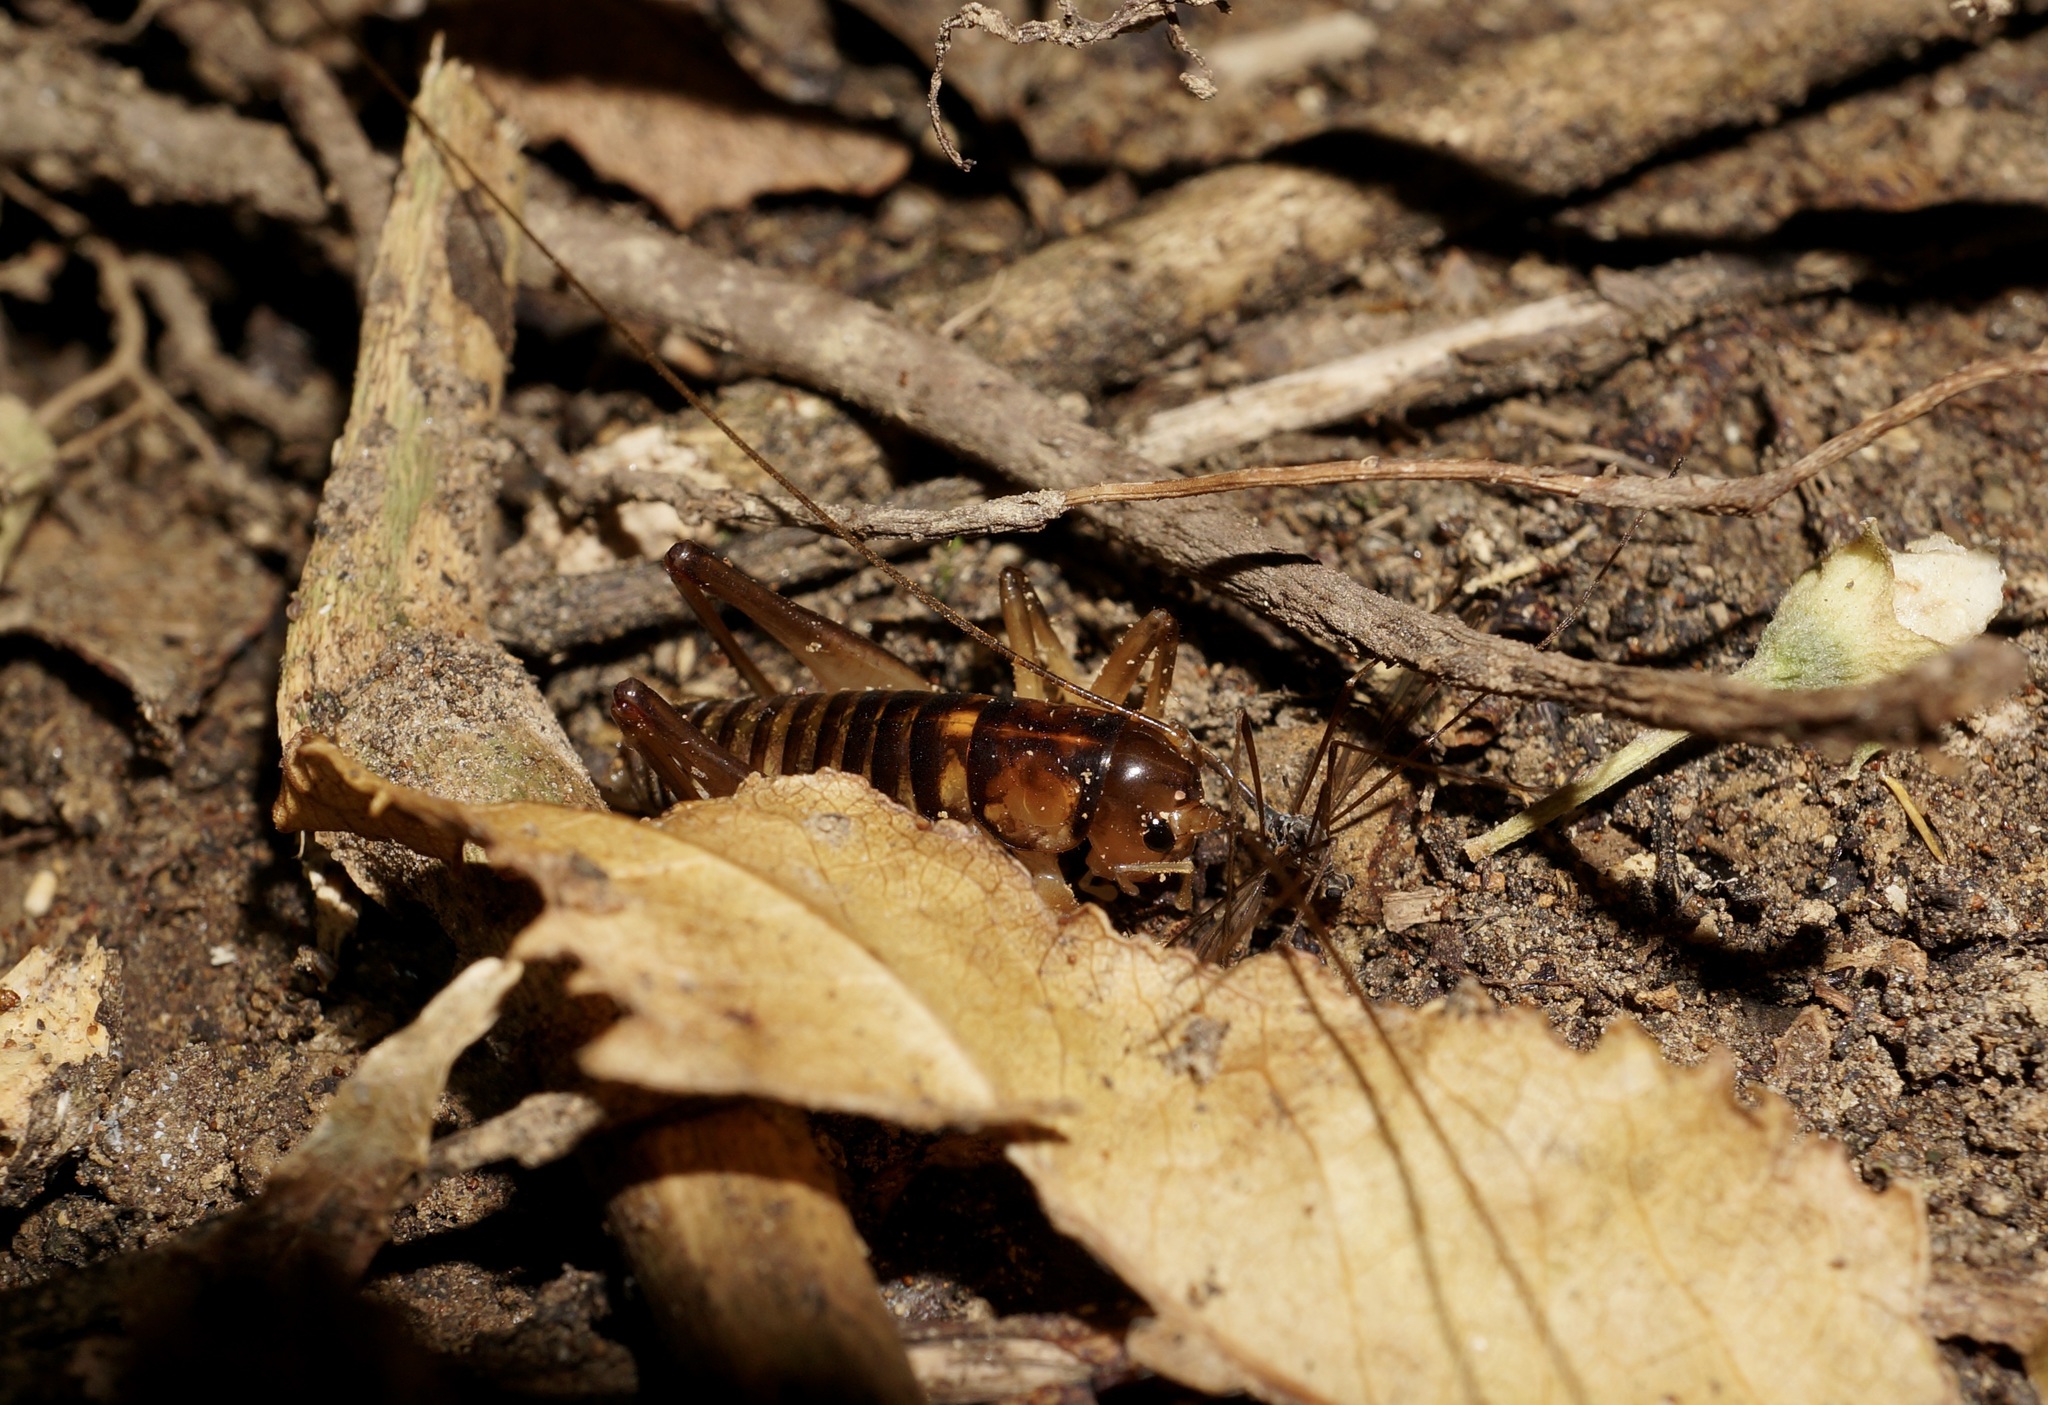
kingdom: Animalia
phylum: Arthropoda
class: Insecta
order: Orthoptera
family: Anostostomatidae
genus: Hemiandrus
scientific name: Hemiandrus pallitarsis
